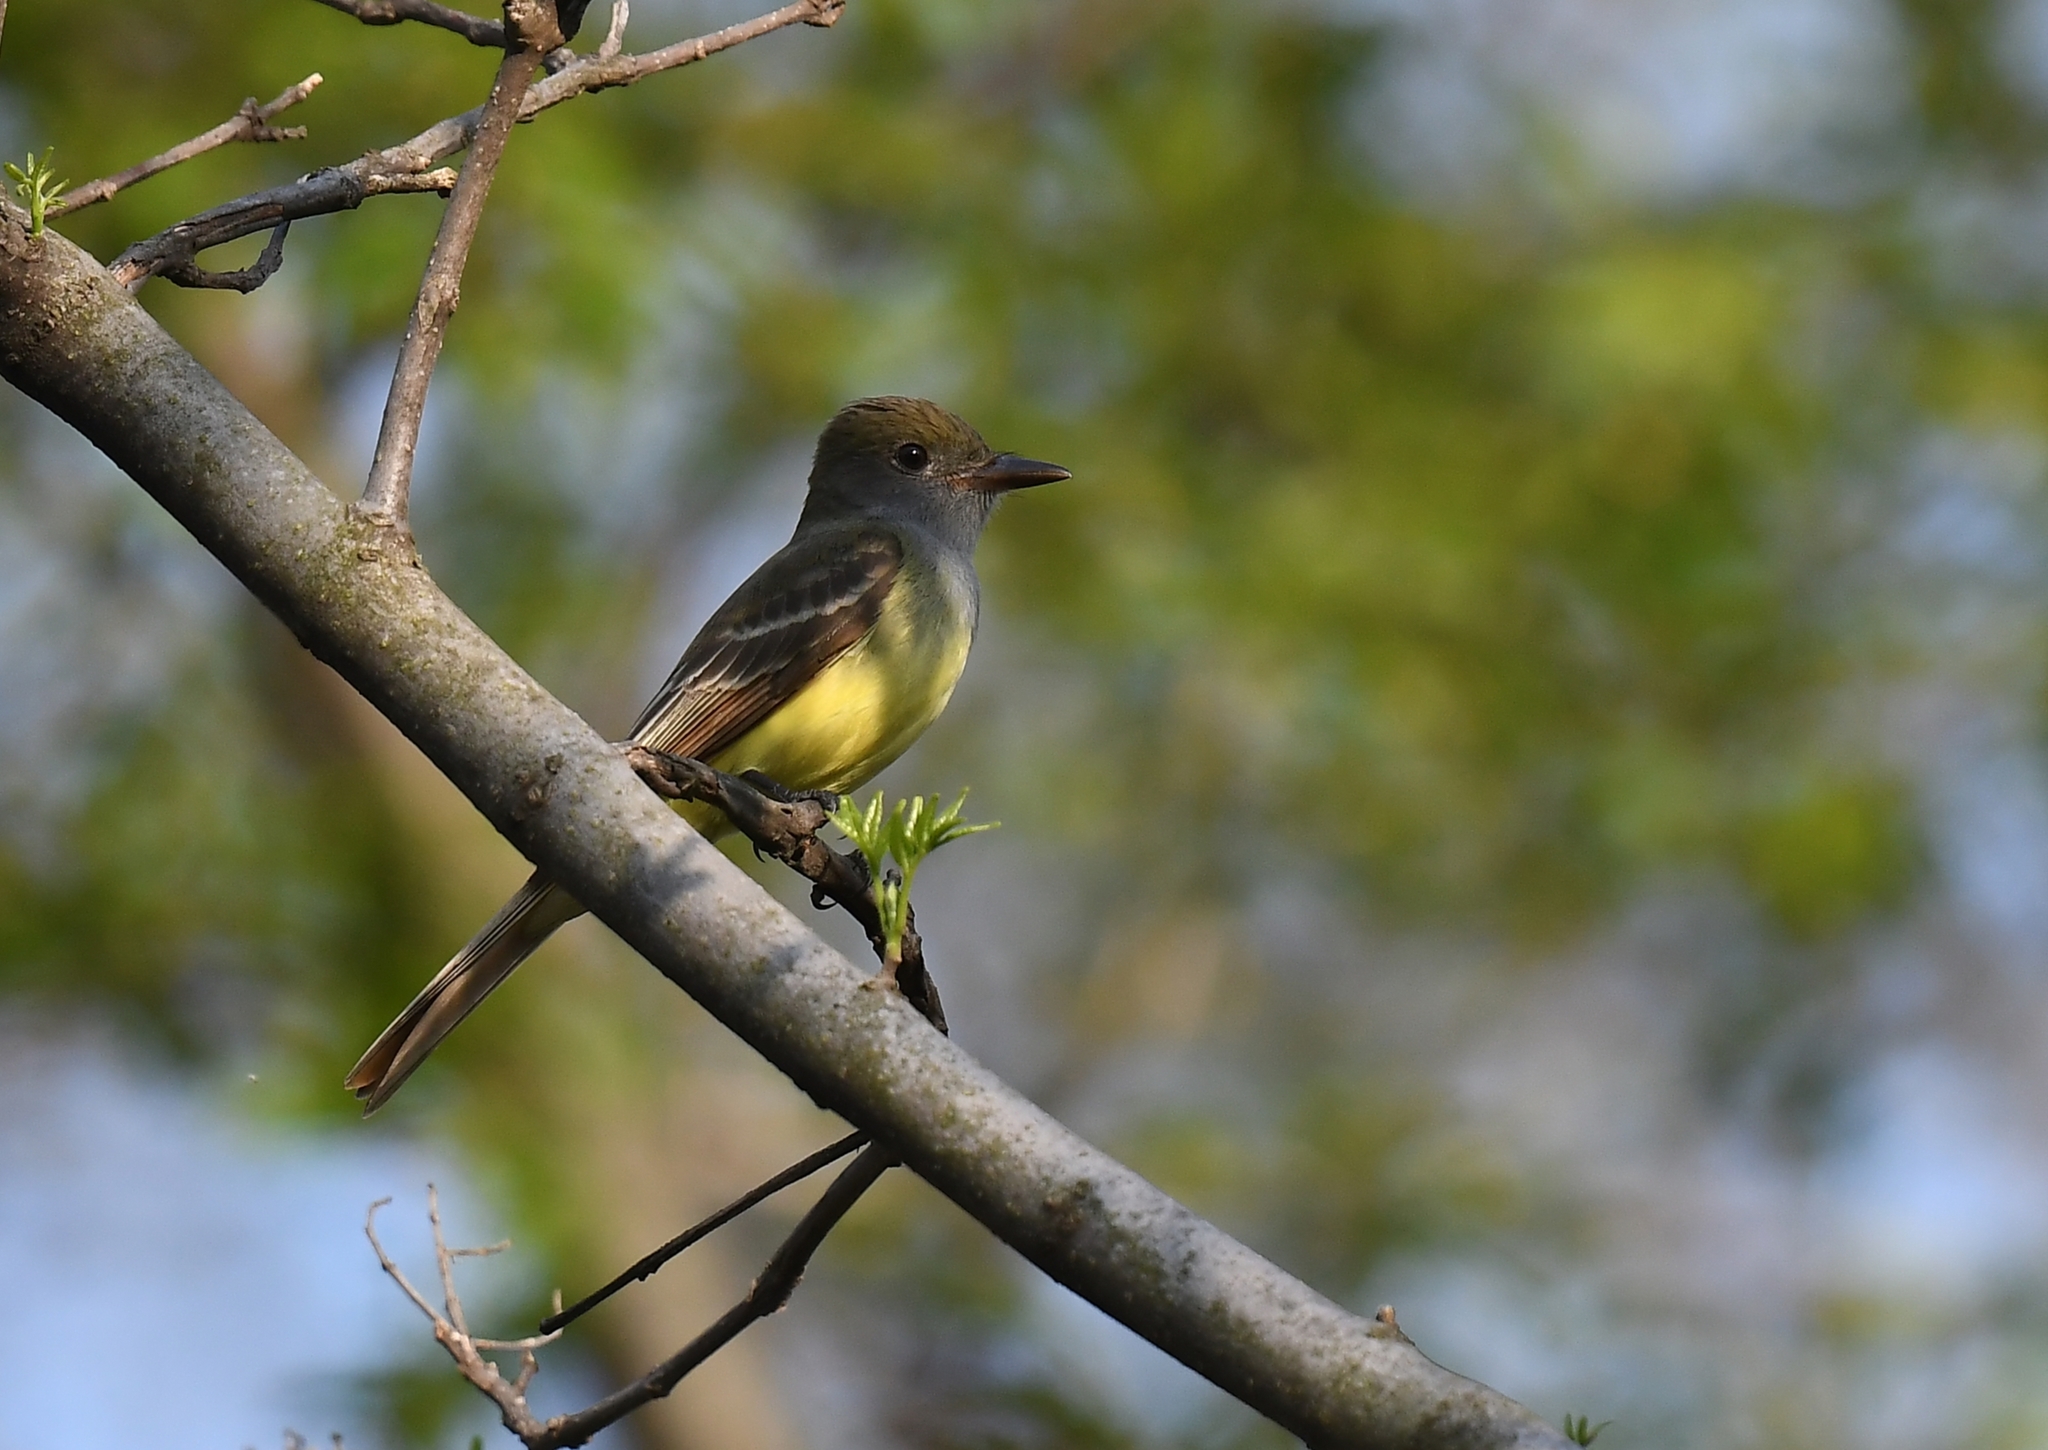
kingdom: Animalia
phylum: Chordata
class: Aves
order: Passeriformes
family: Tyrannidae
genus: Myiarchus
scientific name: Myiarchus crinitus
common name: Great crested flycatcher
